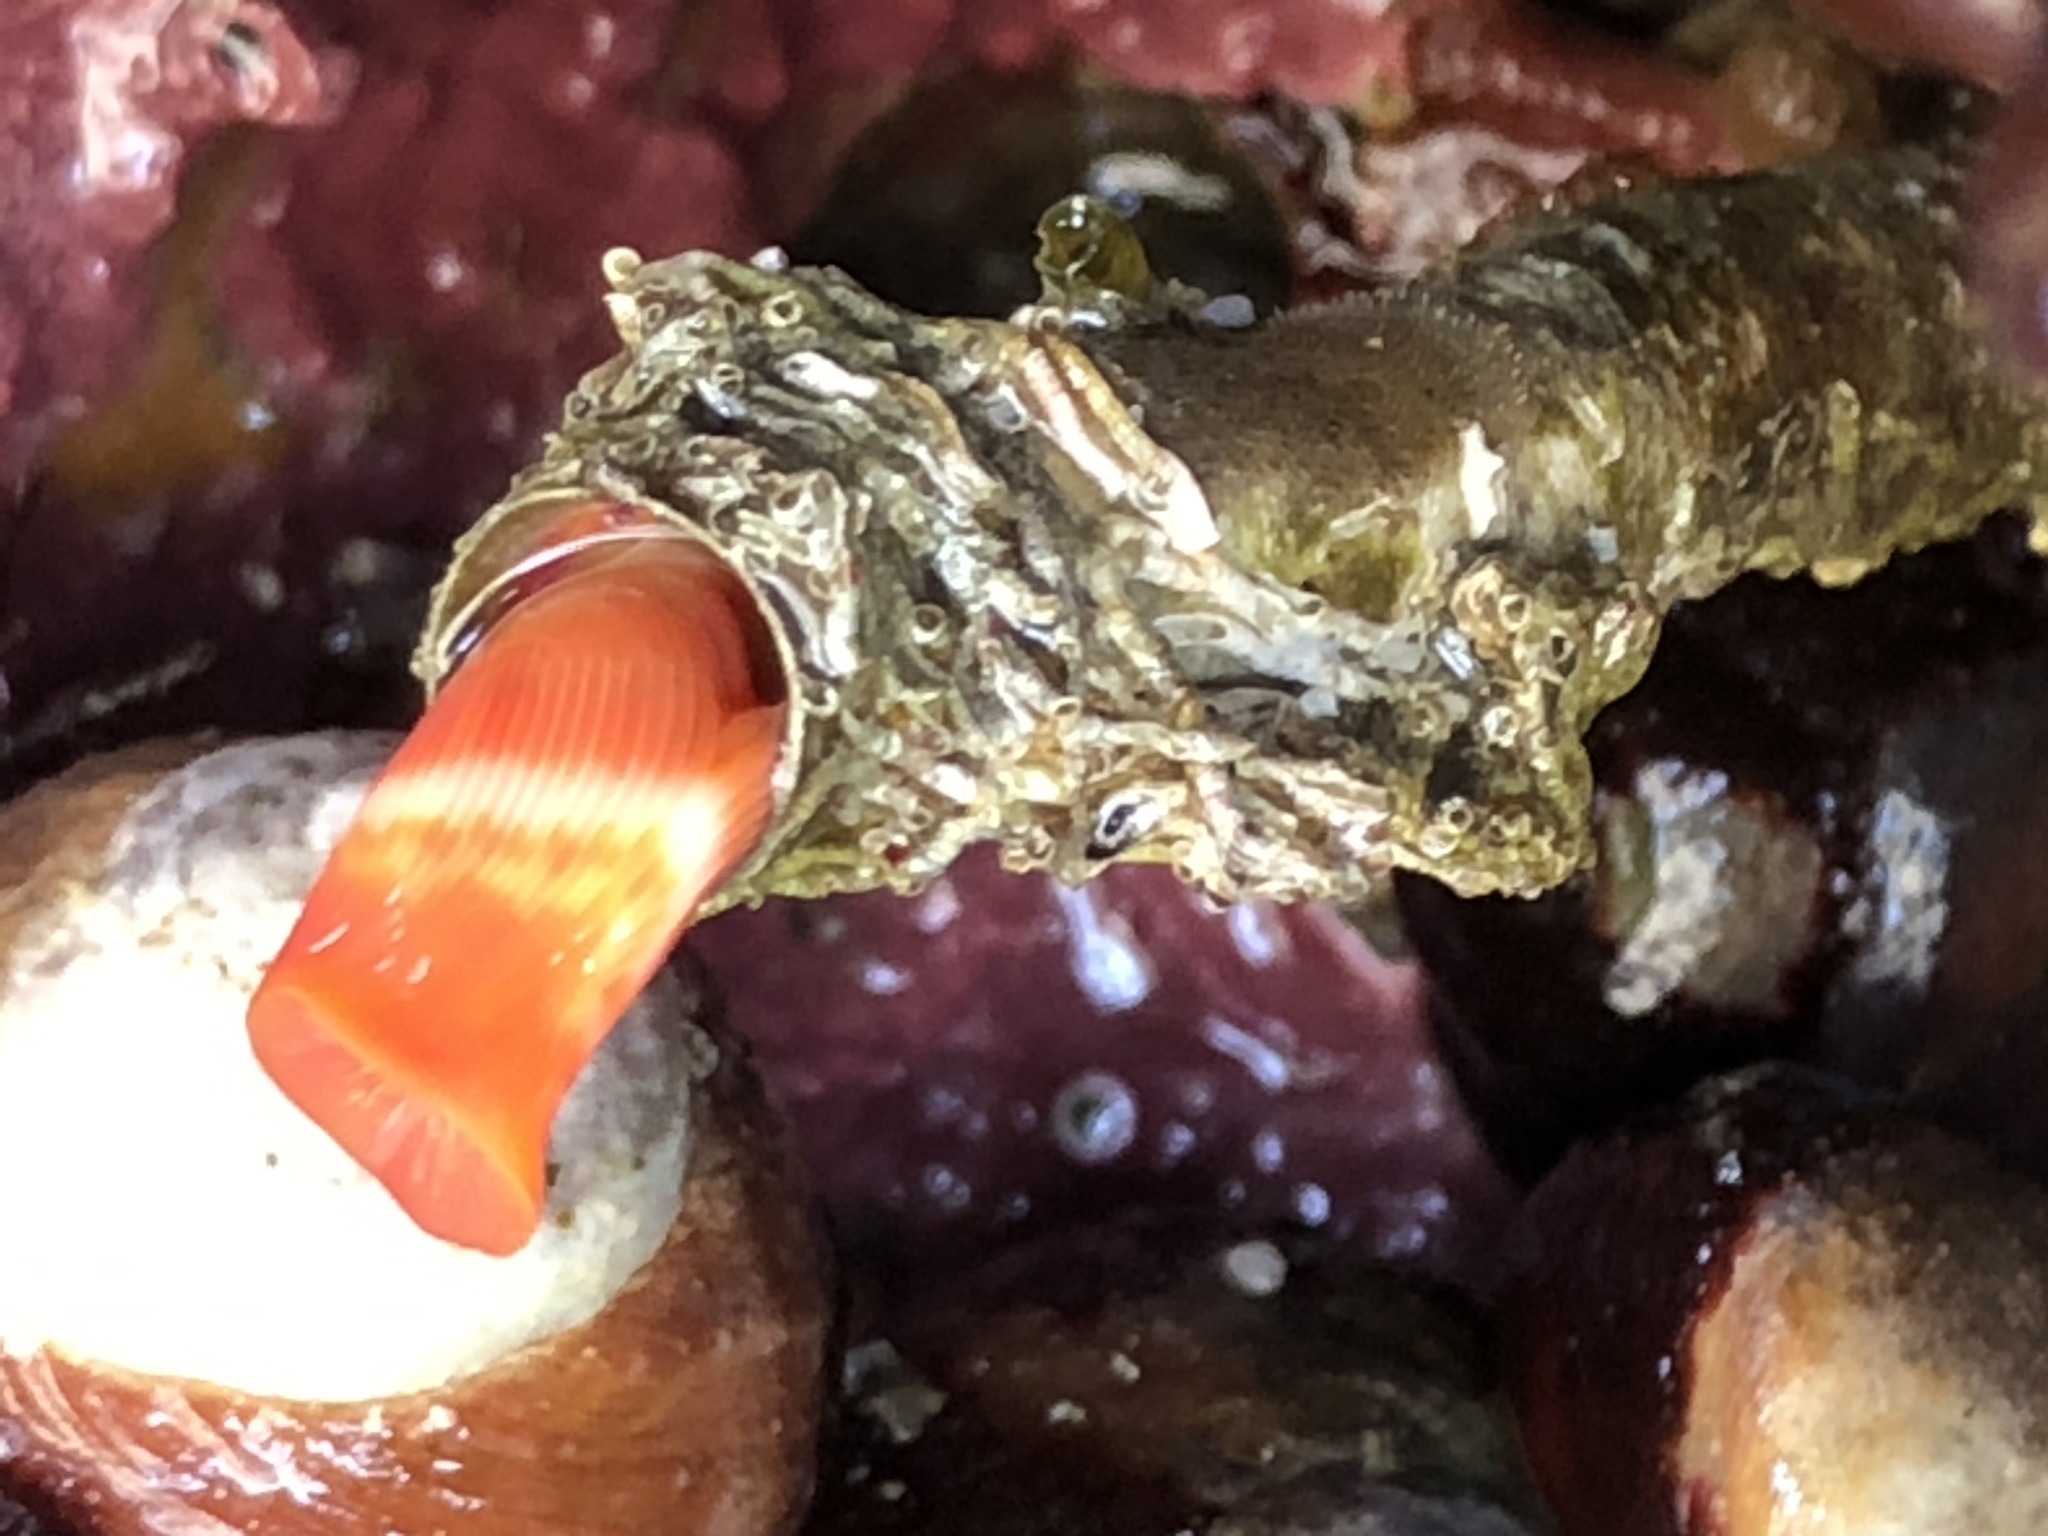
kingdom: Animalia
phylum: Annelida
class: Polychaeta
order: Sabellida
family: Serpulidae
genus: Serpula
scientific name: Serpula columbiana
